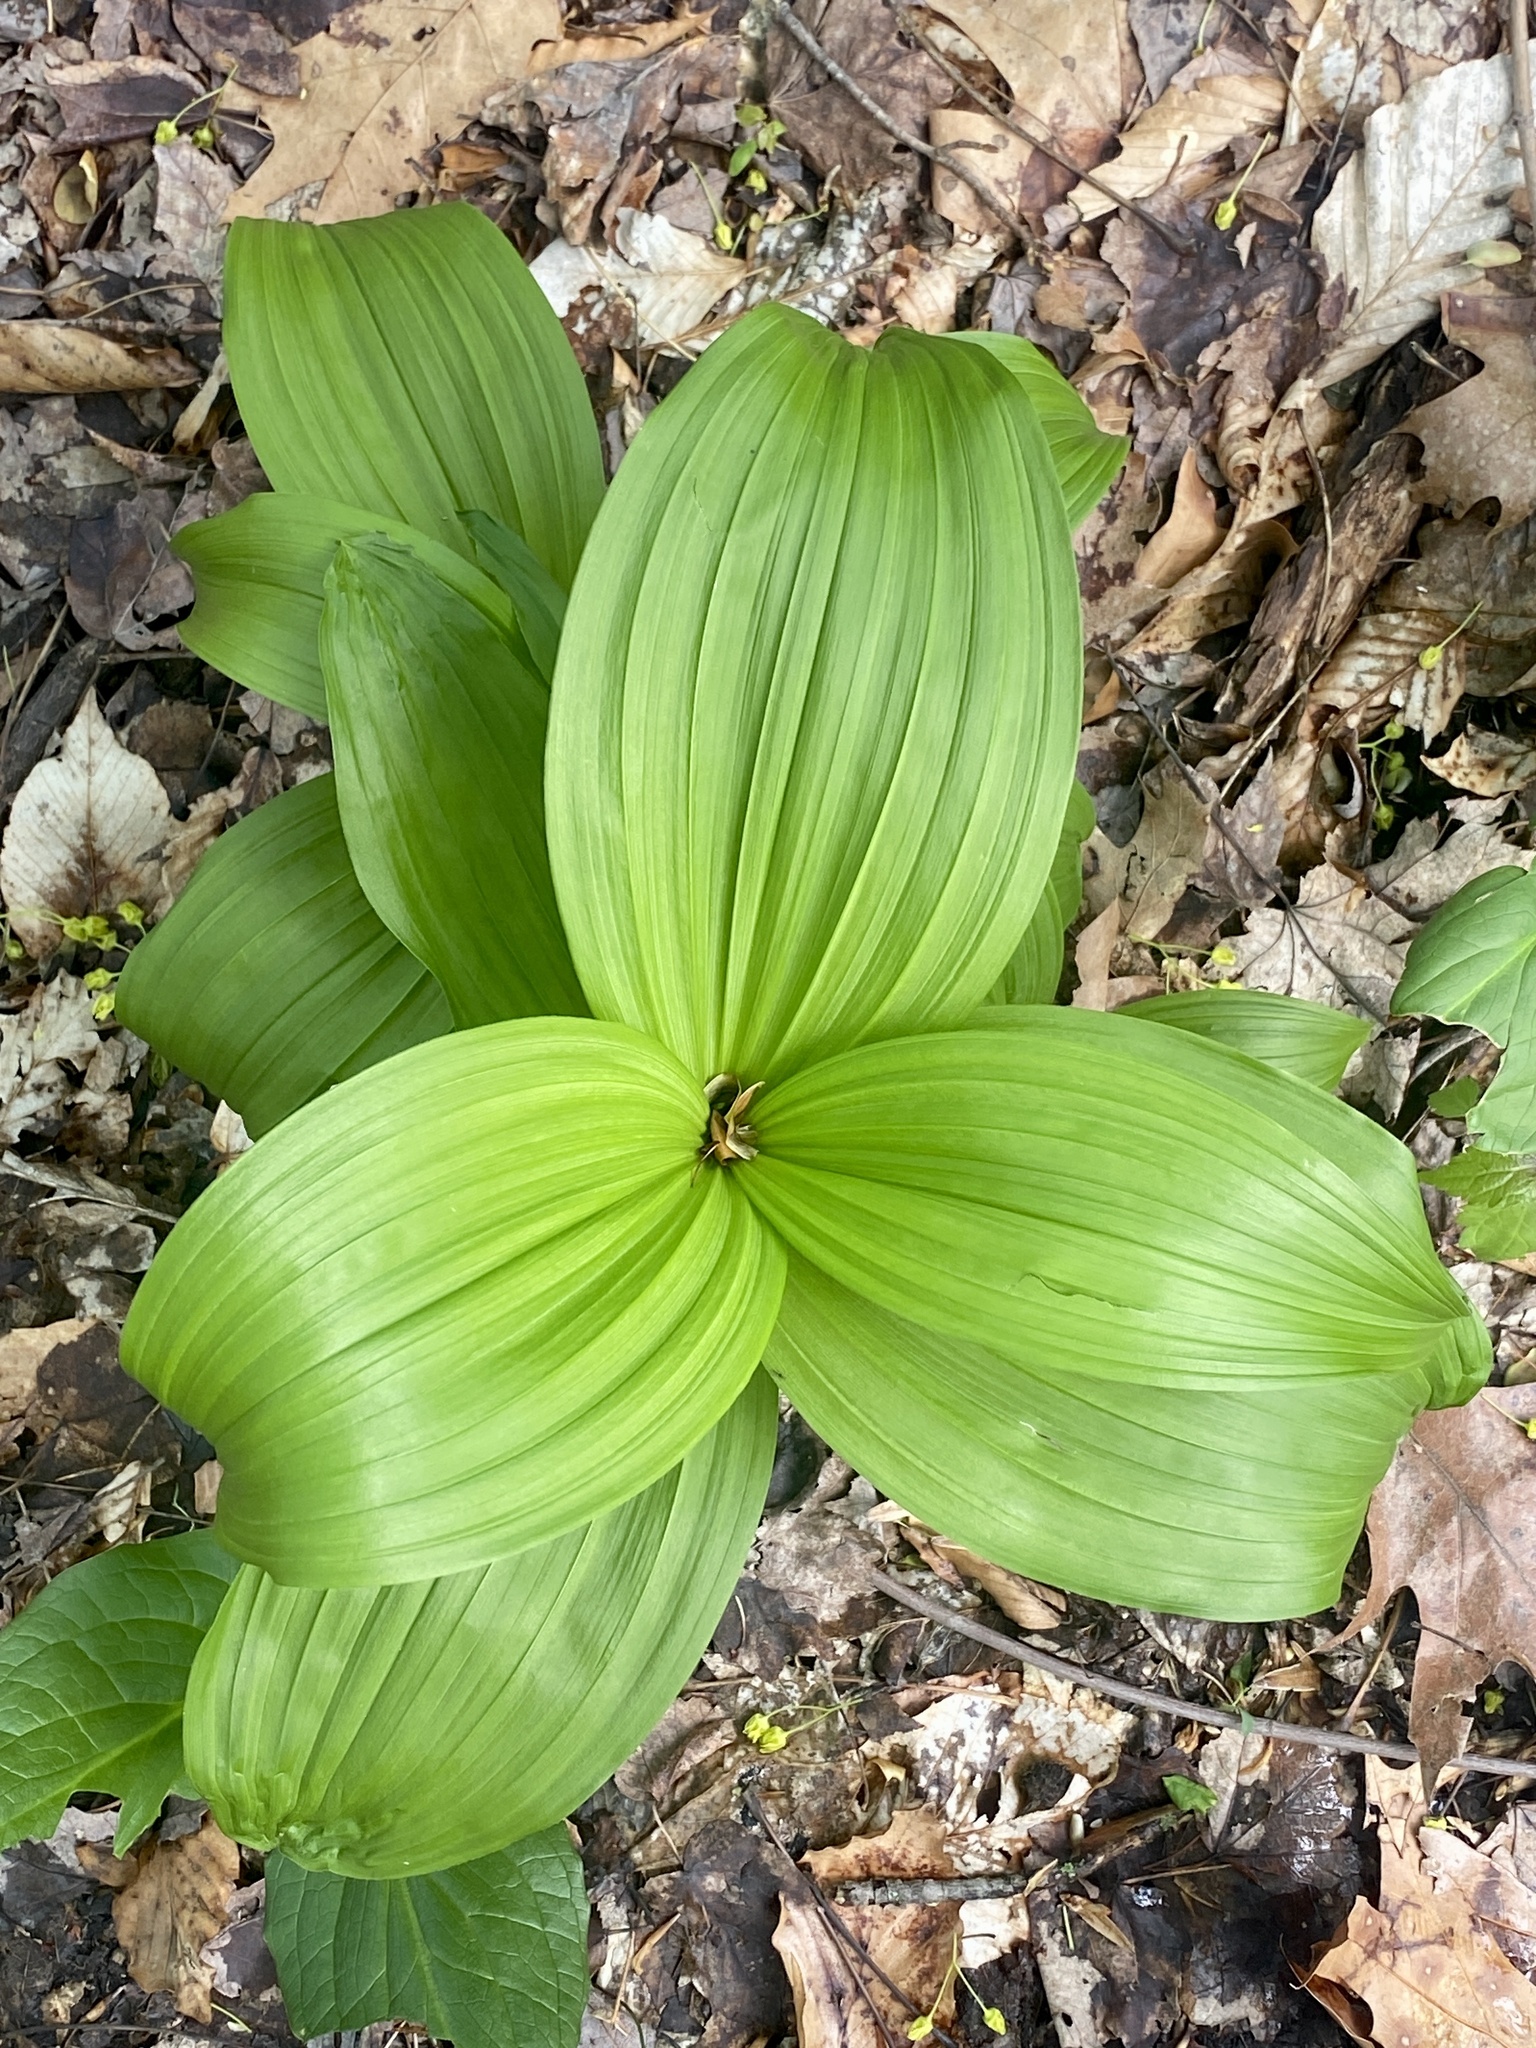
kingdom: Plantae
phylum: Tracheophyta
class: Liliopsida
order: Liliales
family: Melanthiaceae
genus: Veratrum
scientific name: Veratrum viride
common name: American false hellebore
